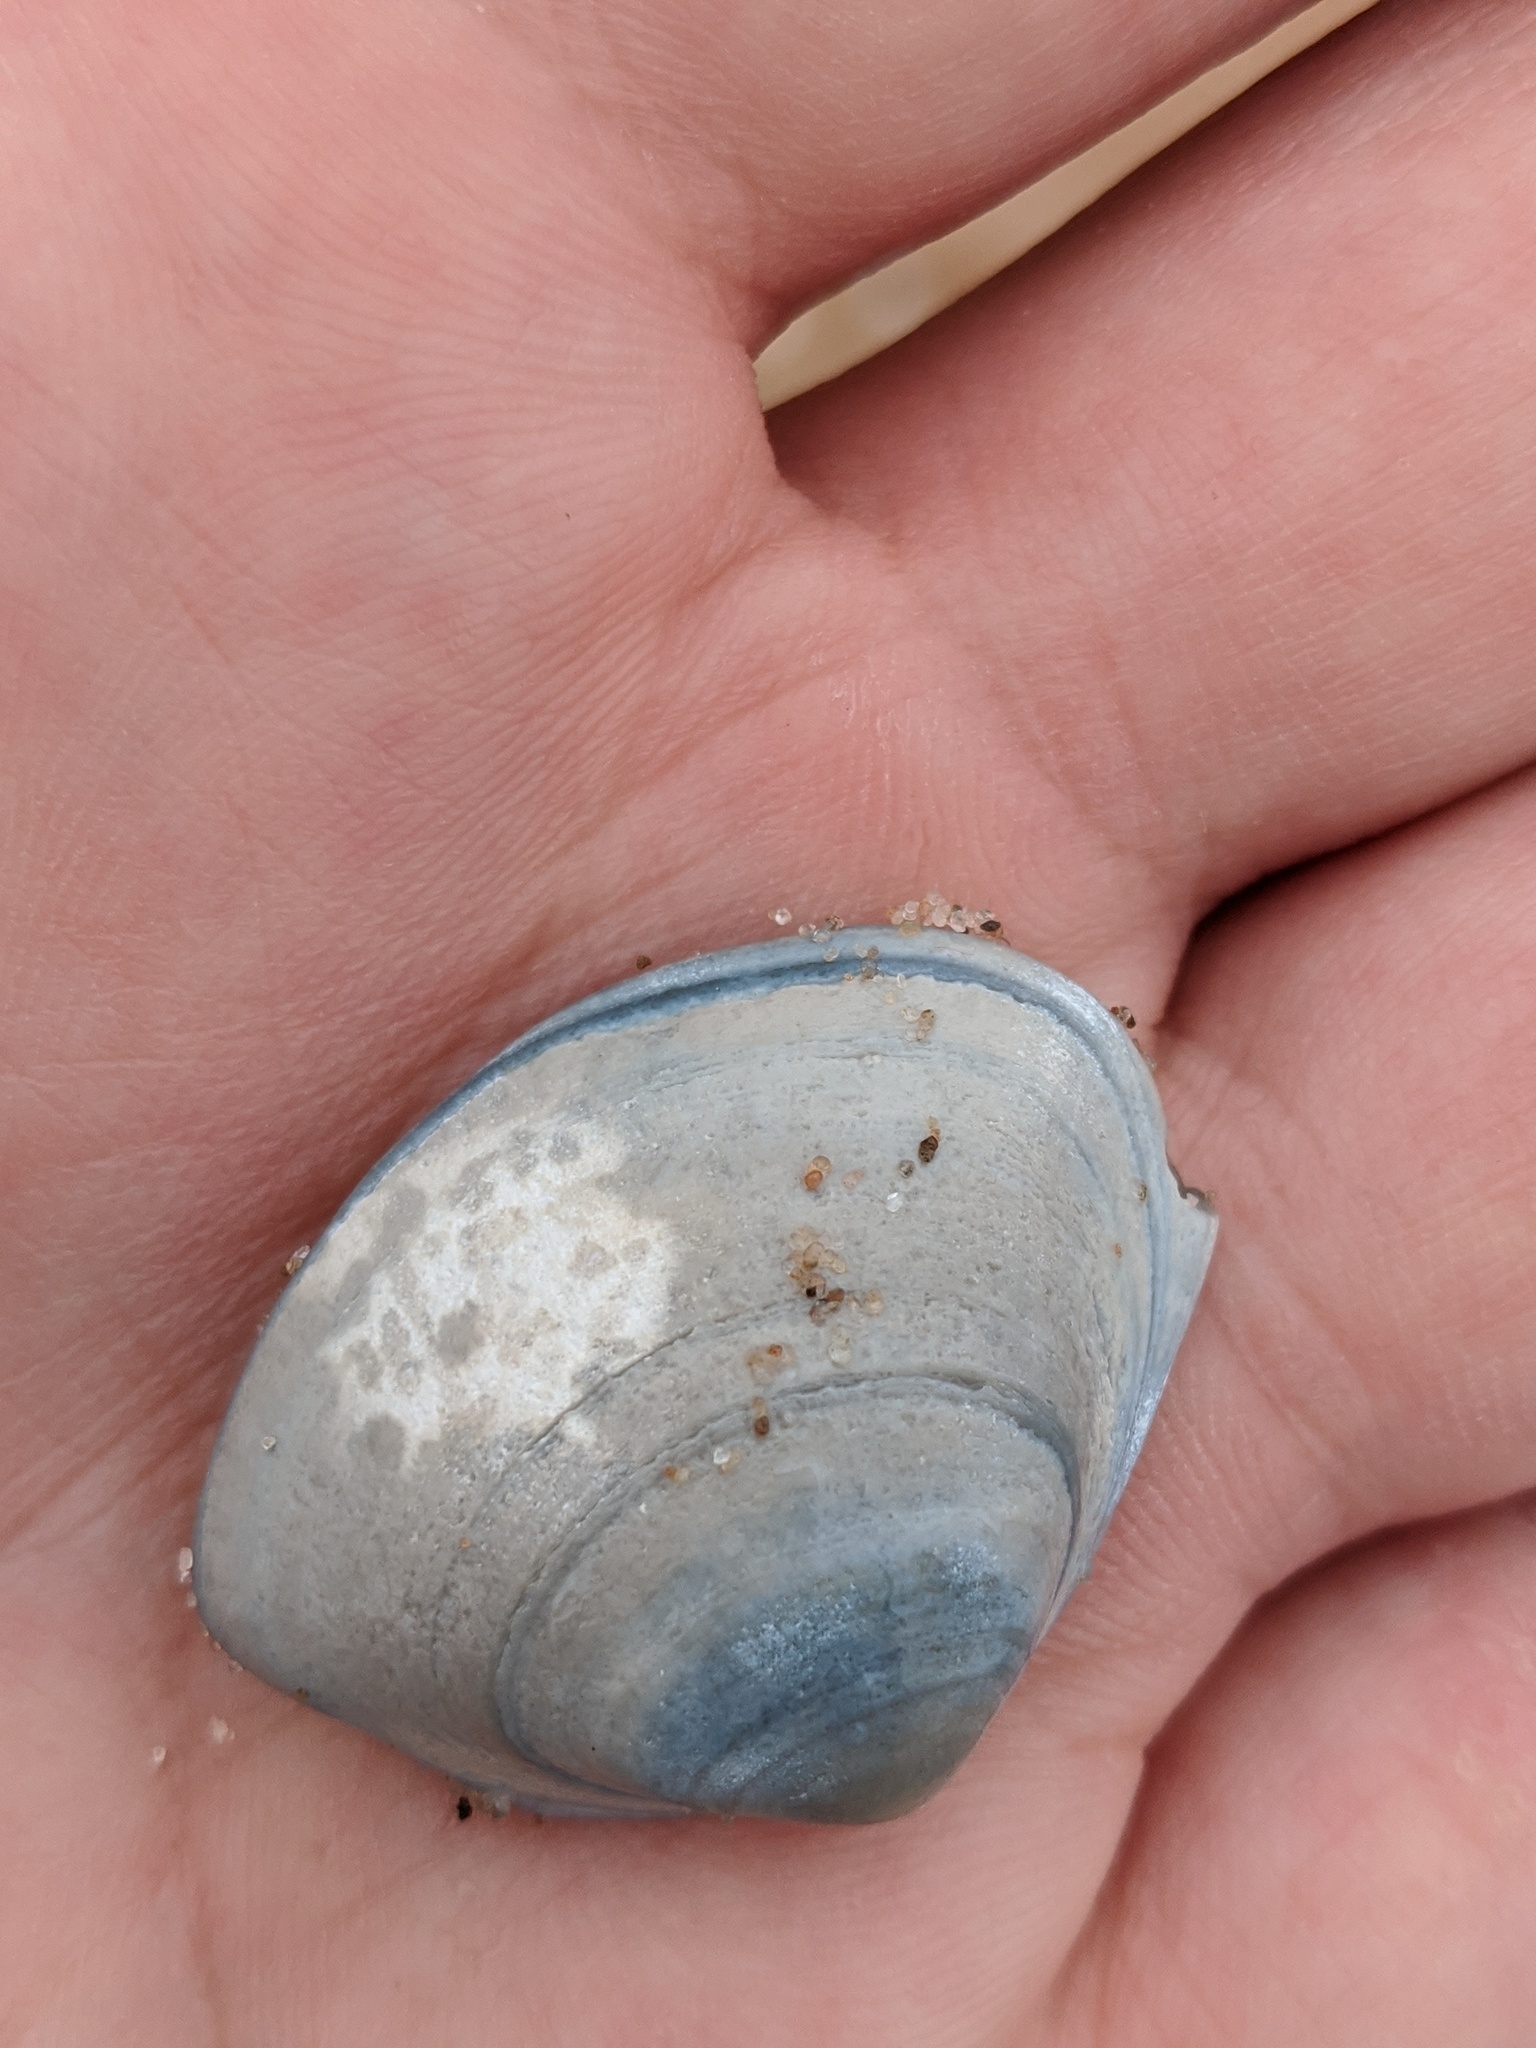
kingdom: Animalia
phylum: Mollusca
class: Bivalvia
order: Venerida
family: Mactridae
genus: Spisula
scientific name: Spisula solidissima
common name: Atlantic surf clam
